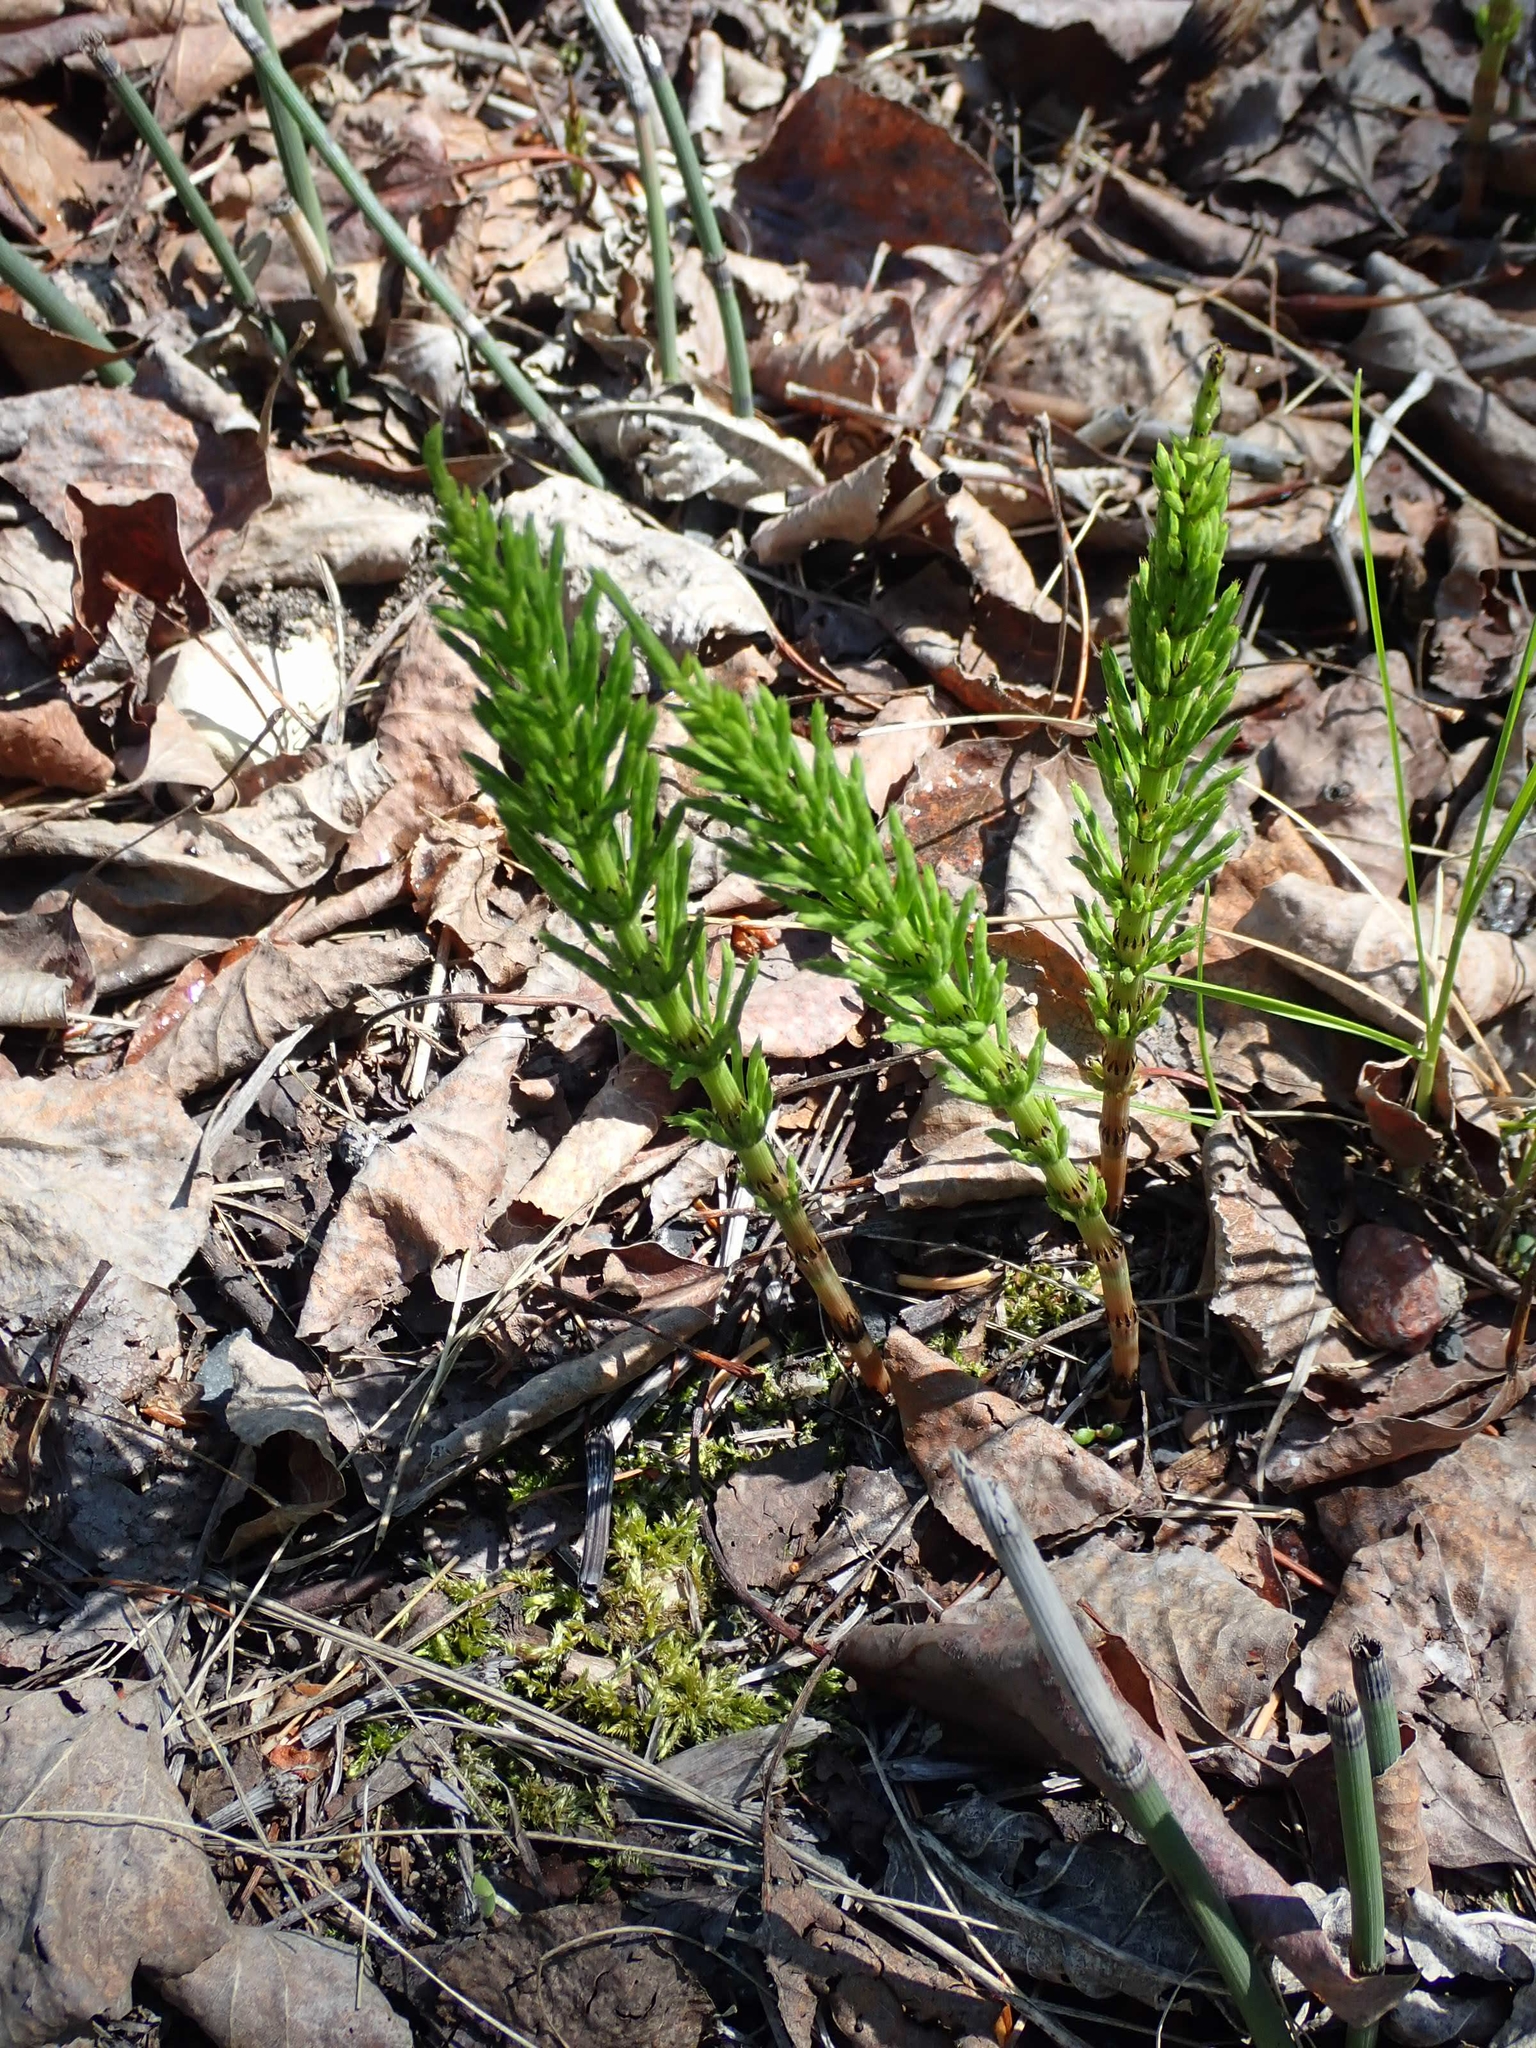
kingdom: Plantae
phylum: Tracheophyta
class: Polypodiopsida
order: Equisetales
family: Equisetaceae
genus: Equisetum
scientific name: Equisetum arvense
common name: Field horsetail
